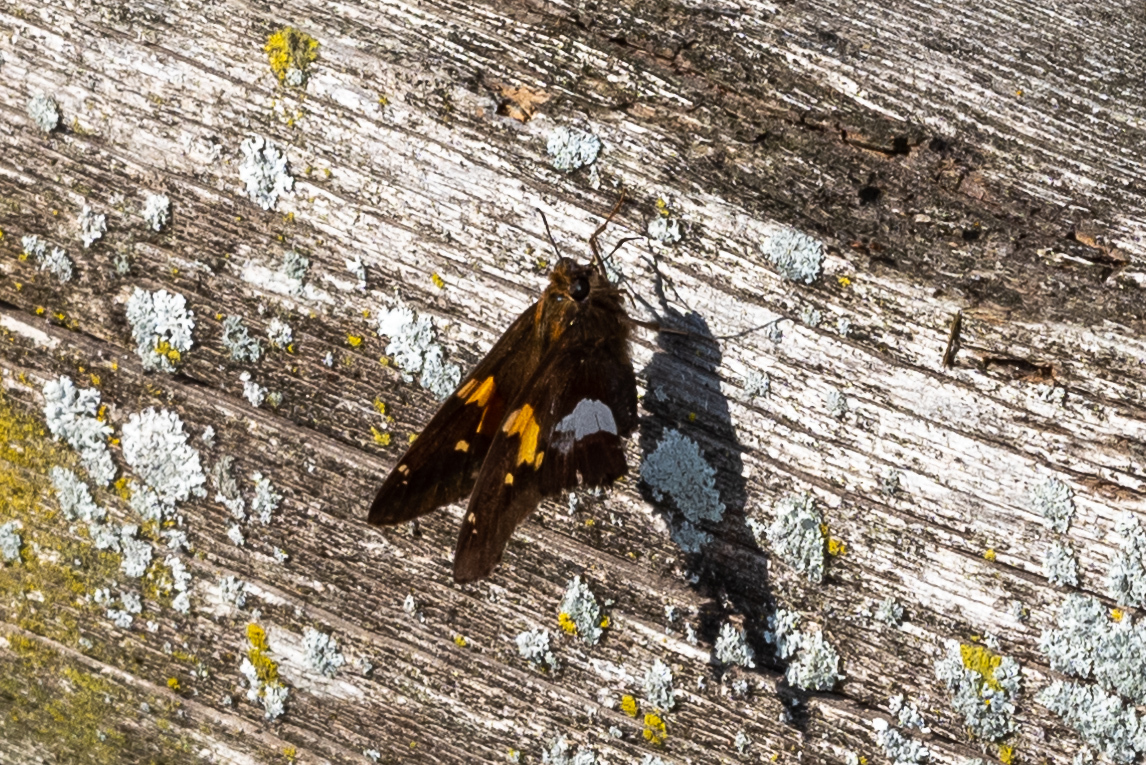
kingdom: Animalia
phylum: Arthropoda
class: Insecta
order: Lepidoptera
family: Hesperiidae
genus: Epargyreus
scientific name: Epargyreus clarus
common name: Silver-spotted skipper
